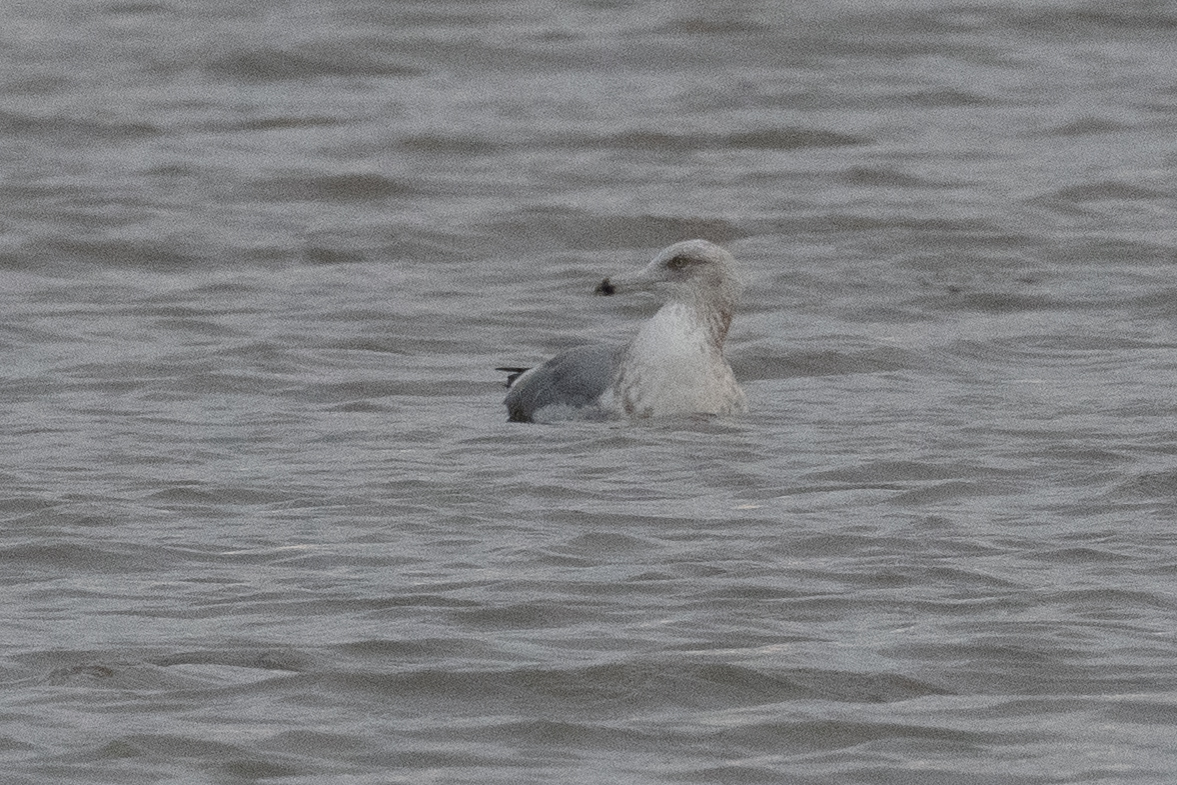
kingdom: Animalia
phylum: Chordata
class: Aves
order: Charadriiformes
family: Laridae
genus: Larus
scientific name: Larus argentatus
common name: Herring gull
